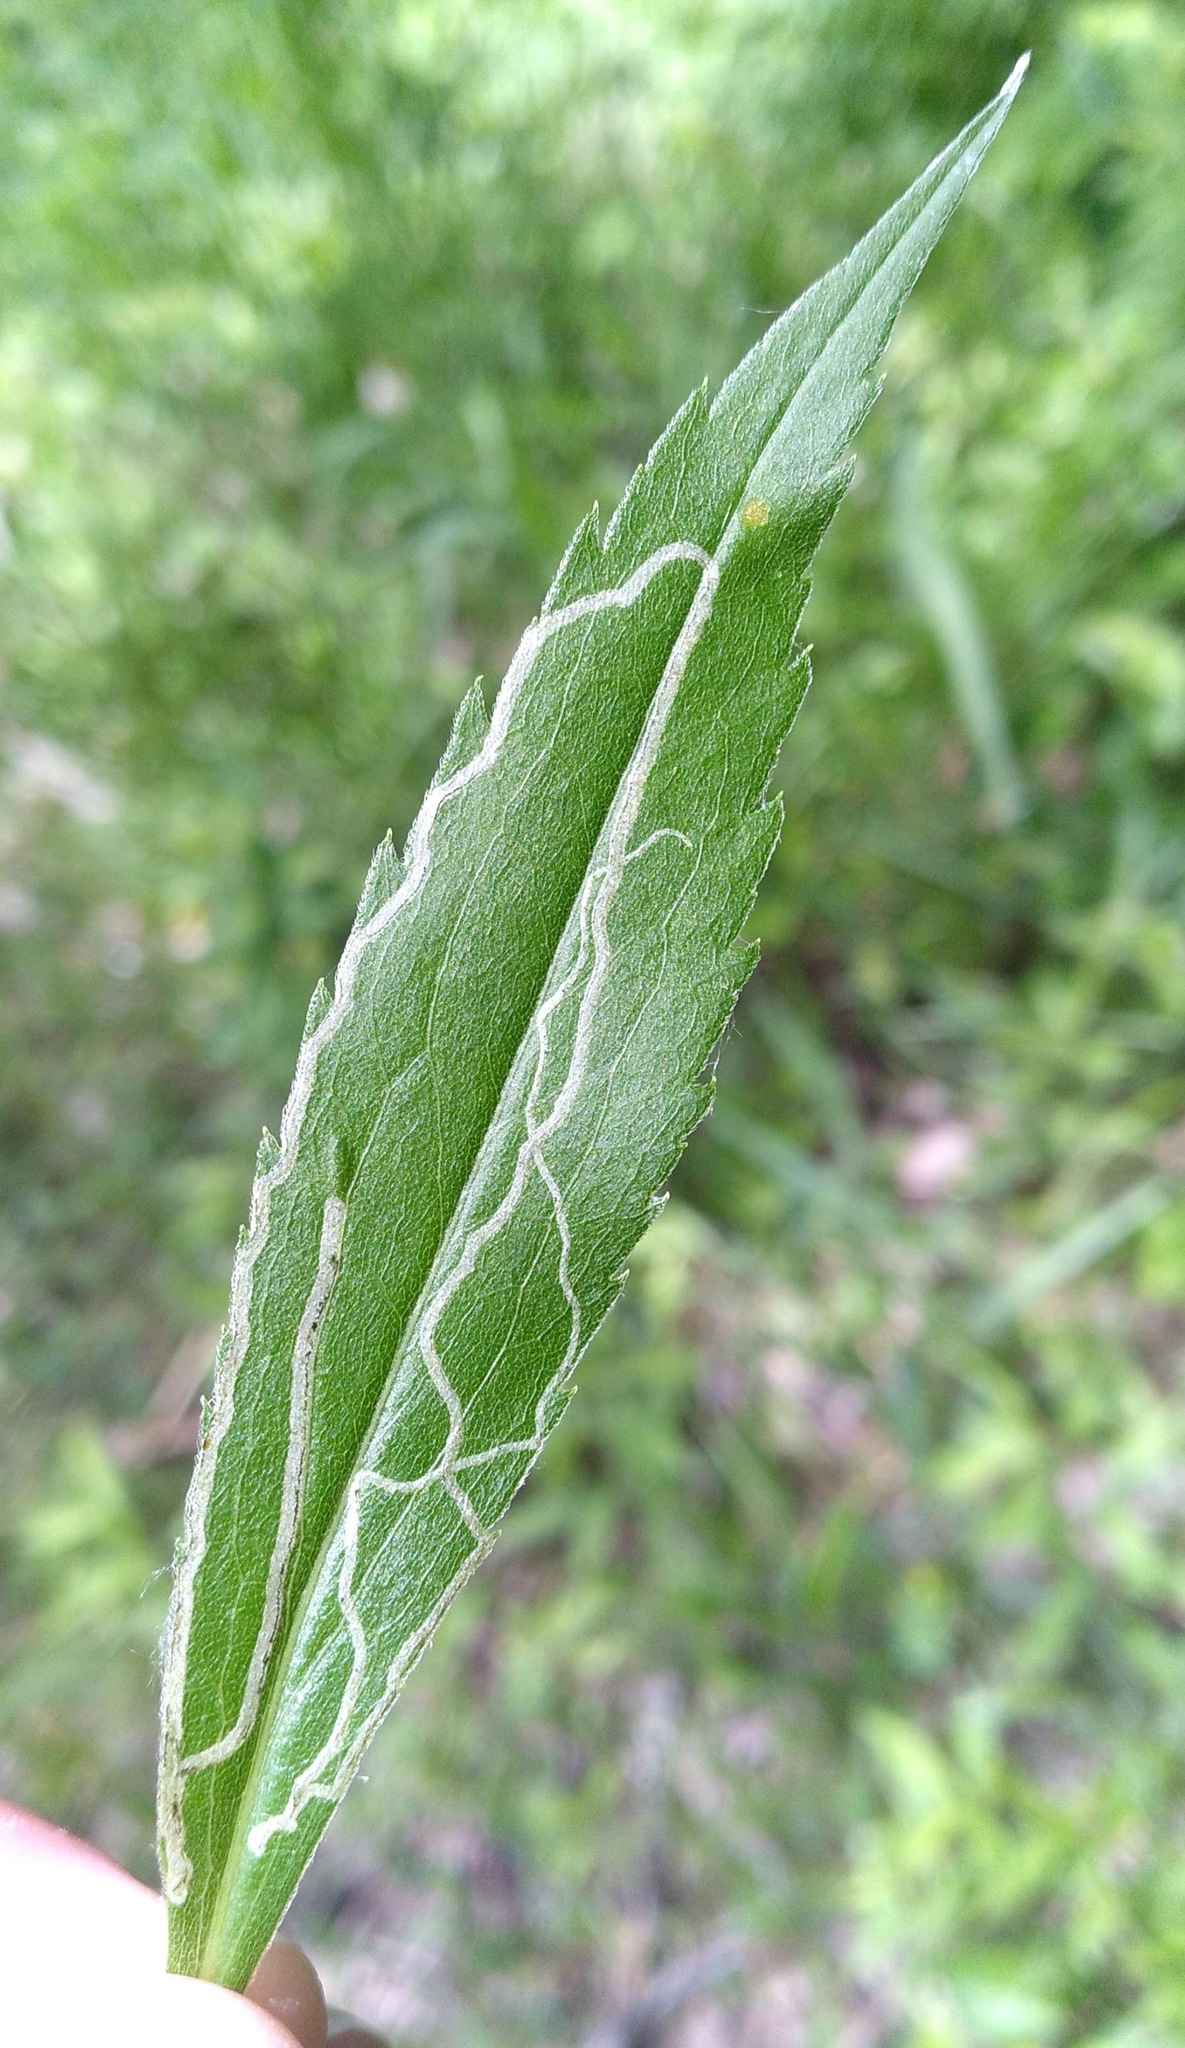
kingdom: Animalia
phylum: Arthropoda
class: Insecta
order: Diptera
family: Agromyzidae
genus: Ophiomyia
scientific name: Ophiomyia maura
